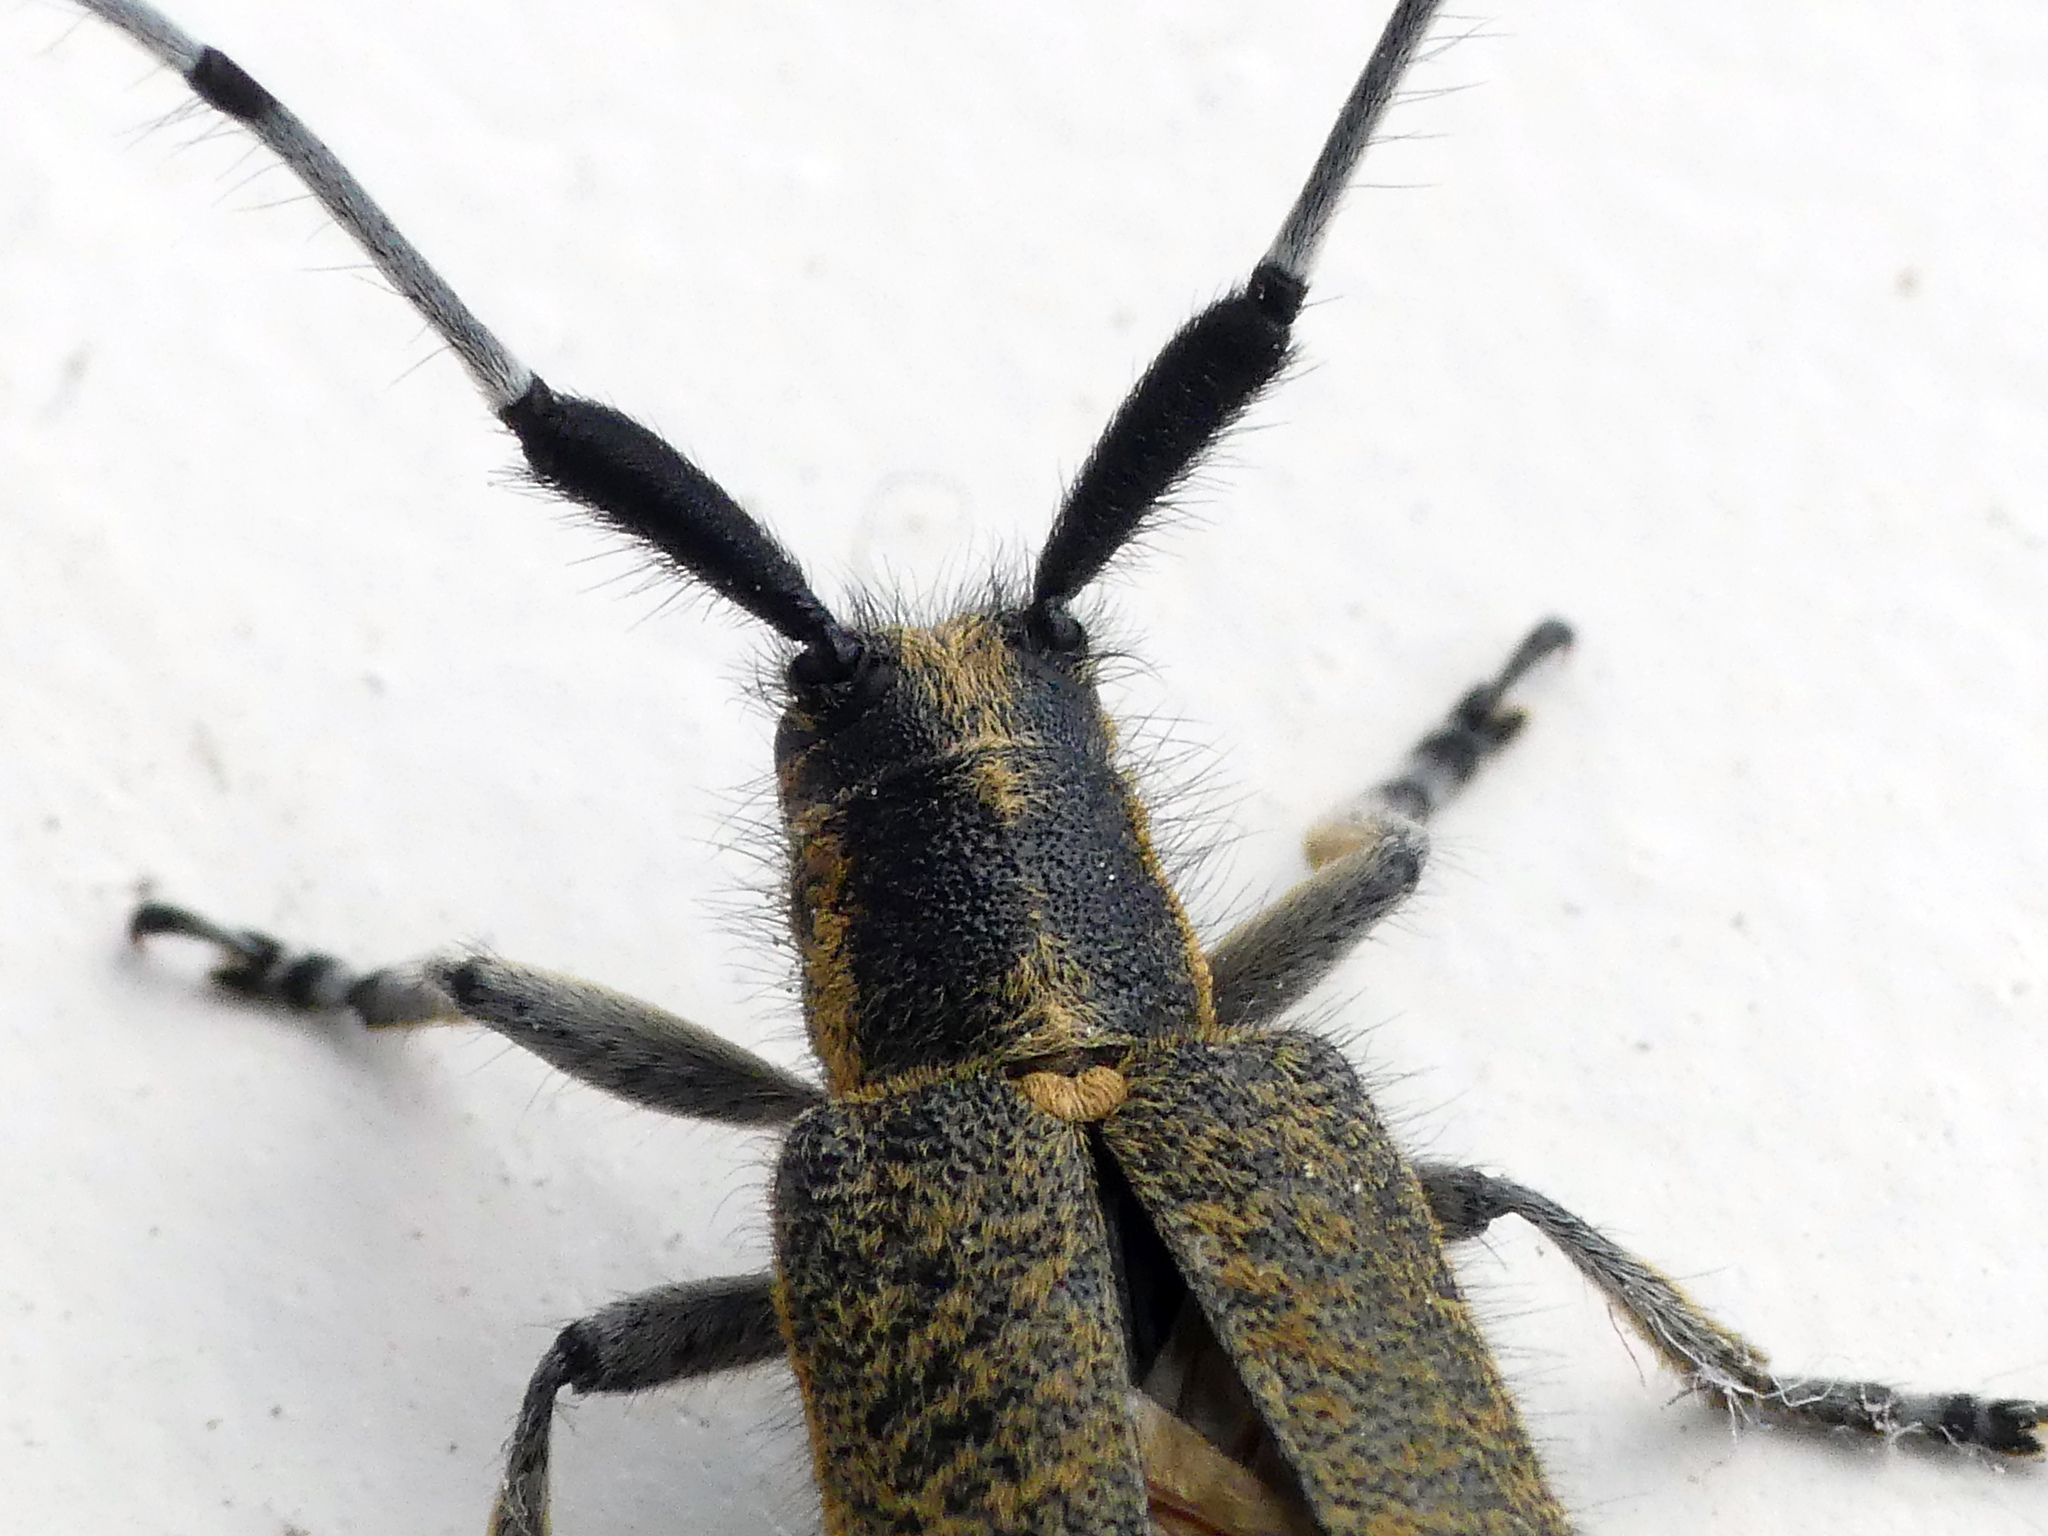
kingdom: Animalia
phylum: Arthropoda
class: Insecta
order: Coleoptera
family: Cerambycidae
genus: Agapanthia
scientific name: Agapanthia villosoviridescens
